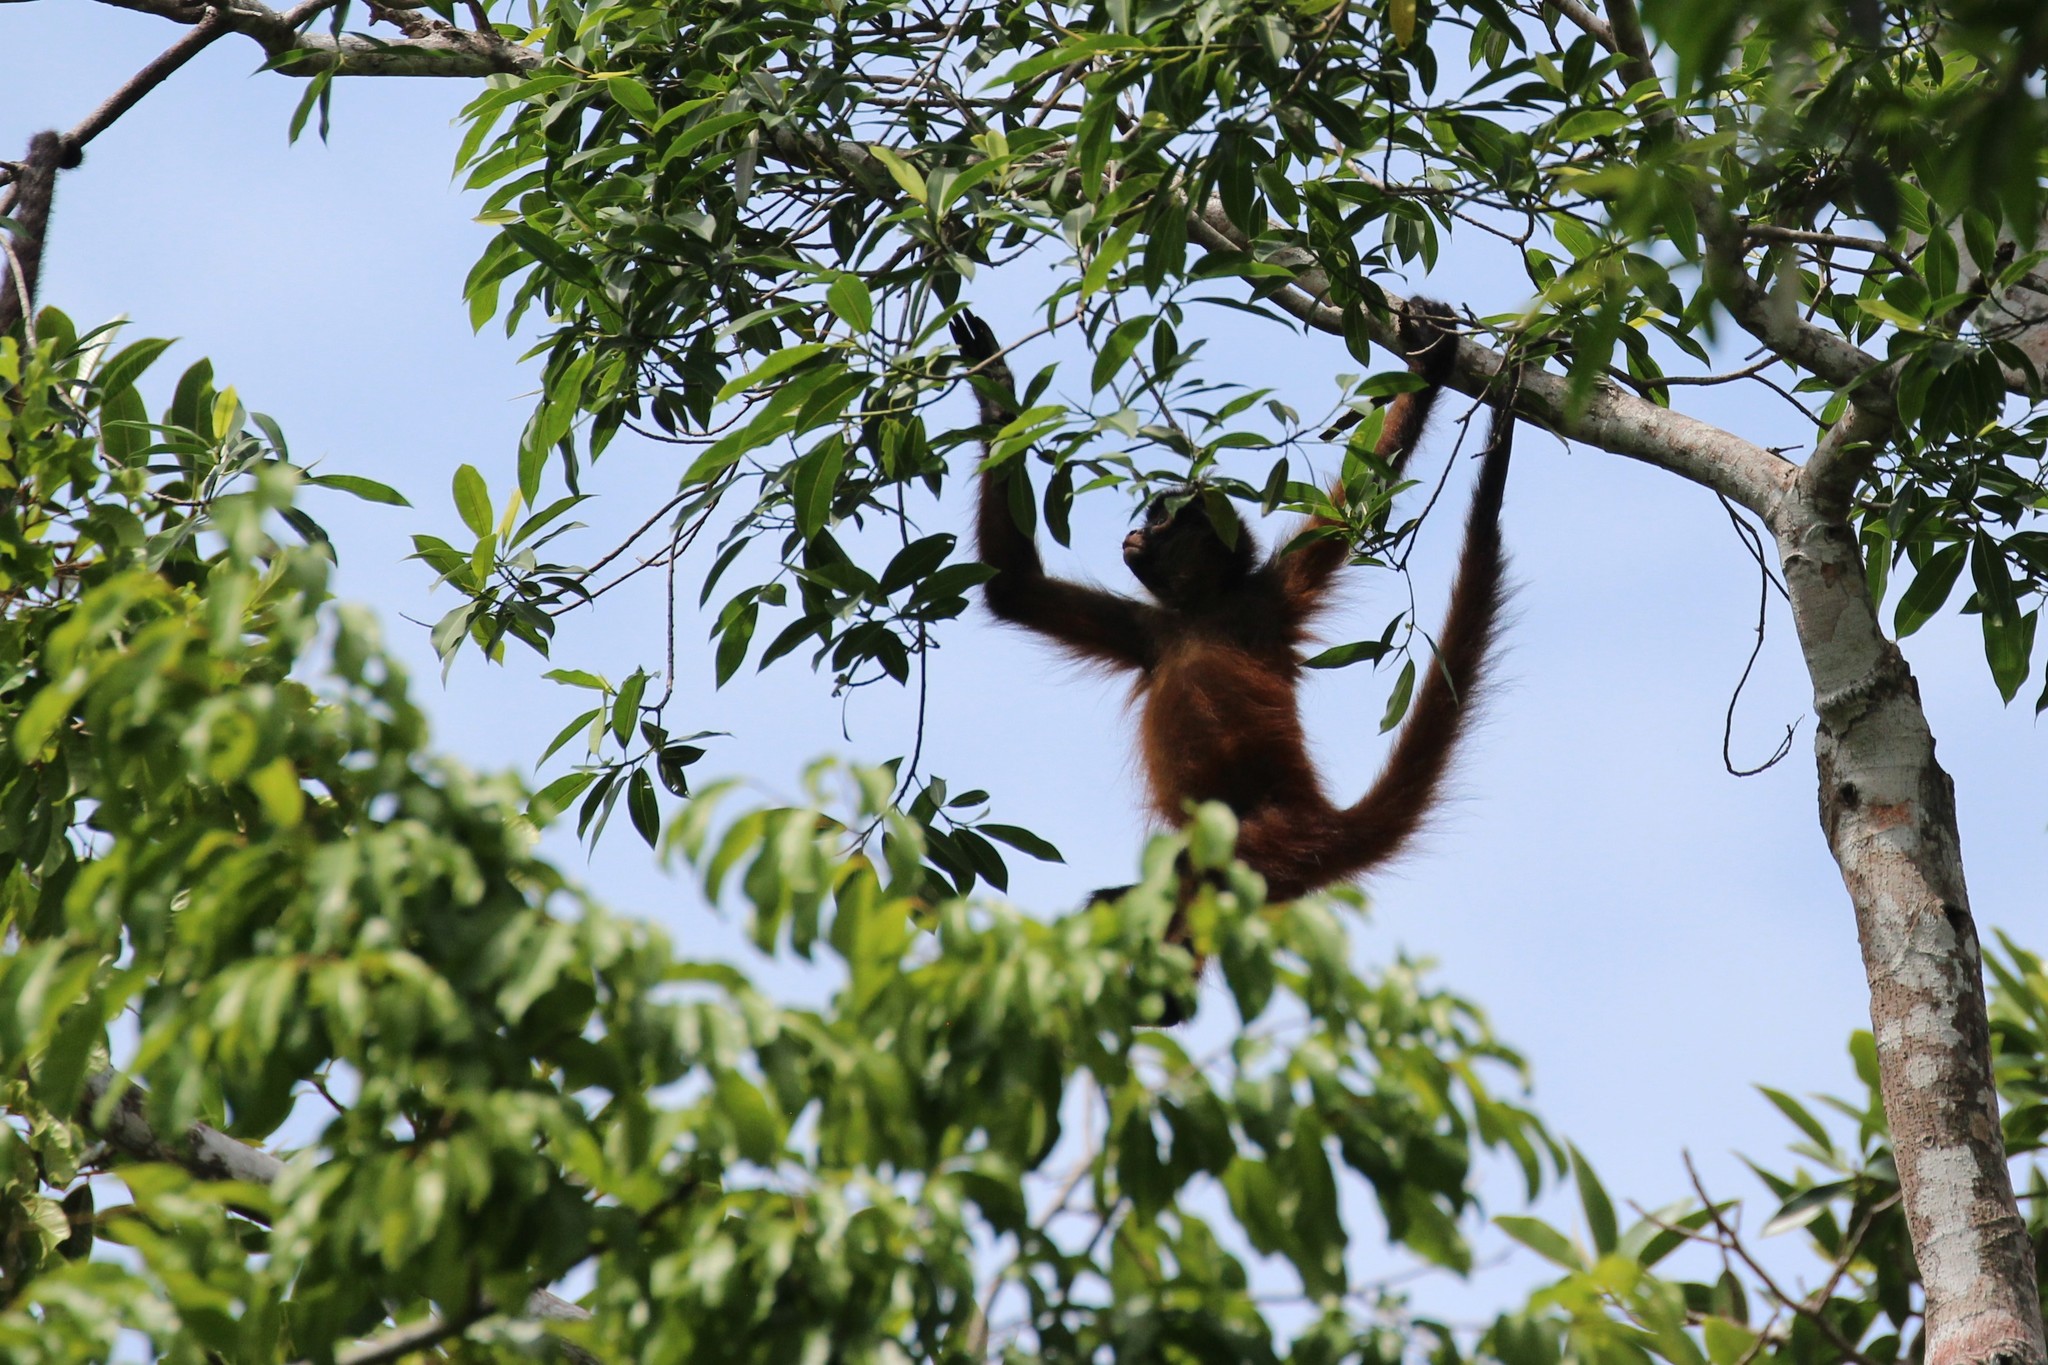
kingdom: Animalia
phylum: Chordata
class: Mammalia
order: Primates
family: Atelidae
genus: Ateles
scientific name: Ateles geoffroyi
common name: Black-handed spider monkey
